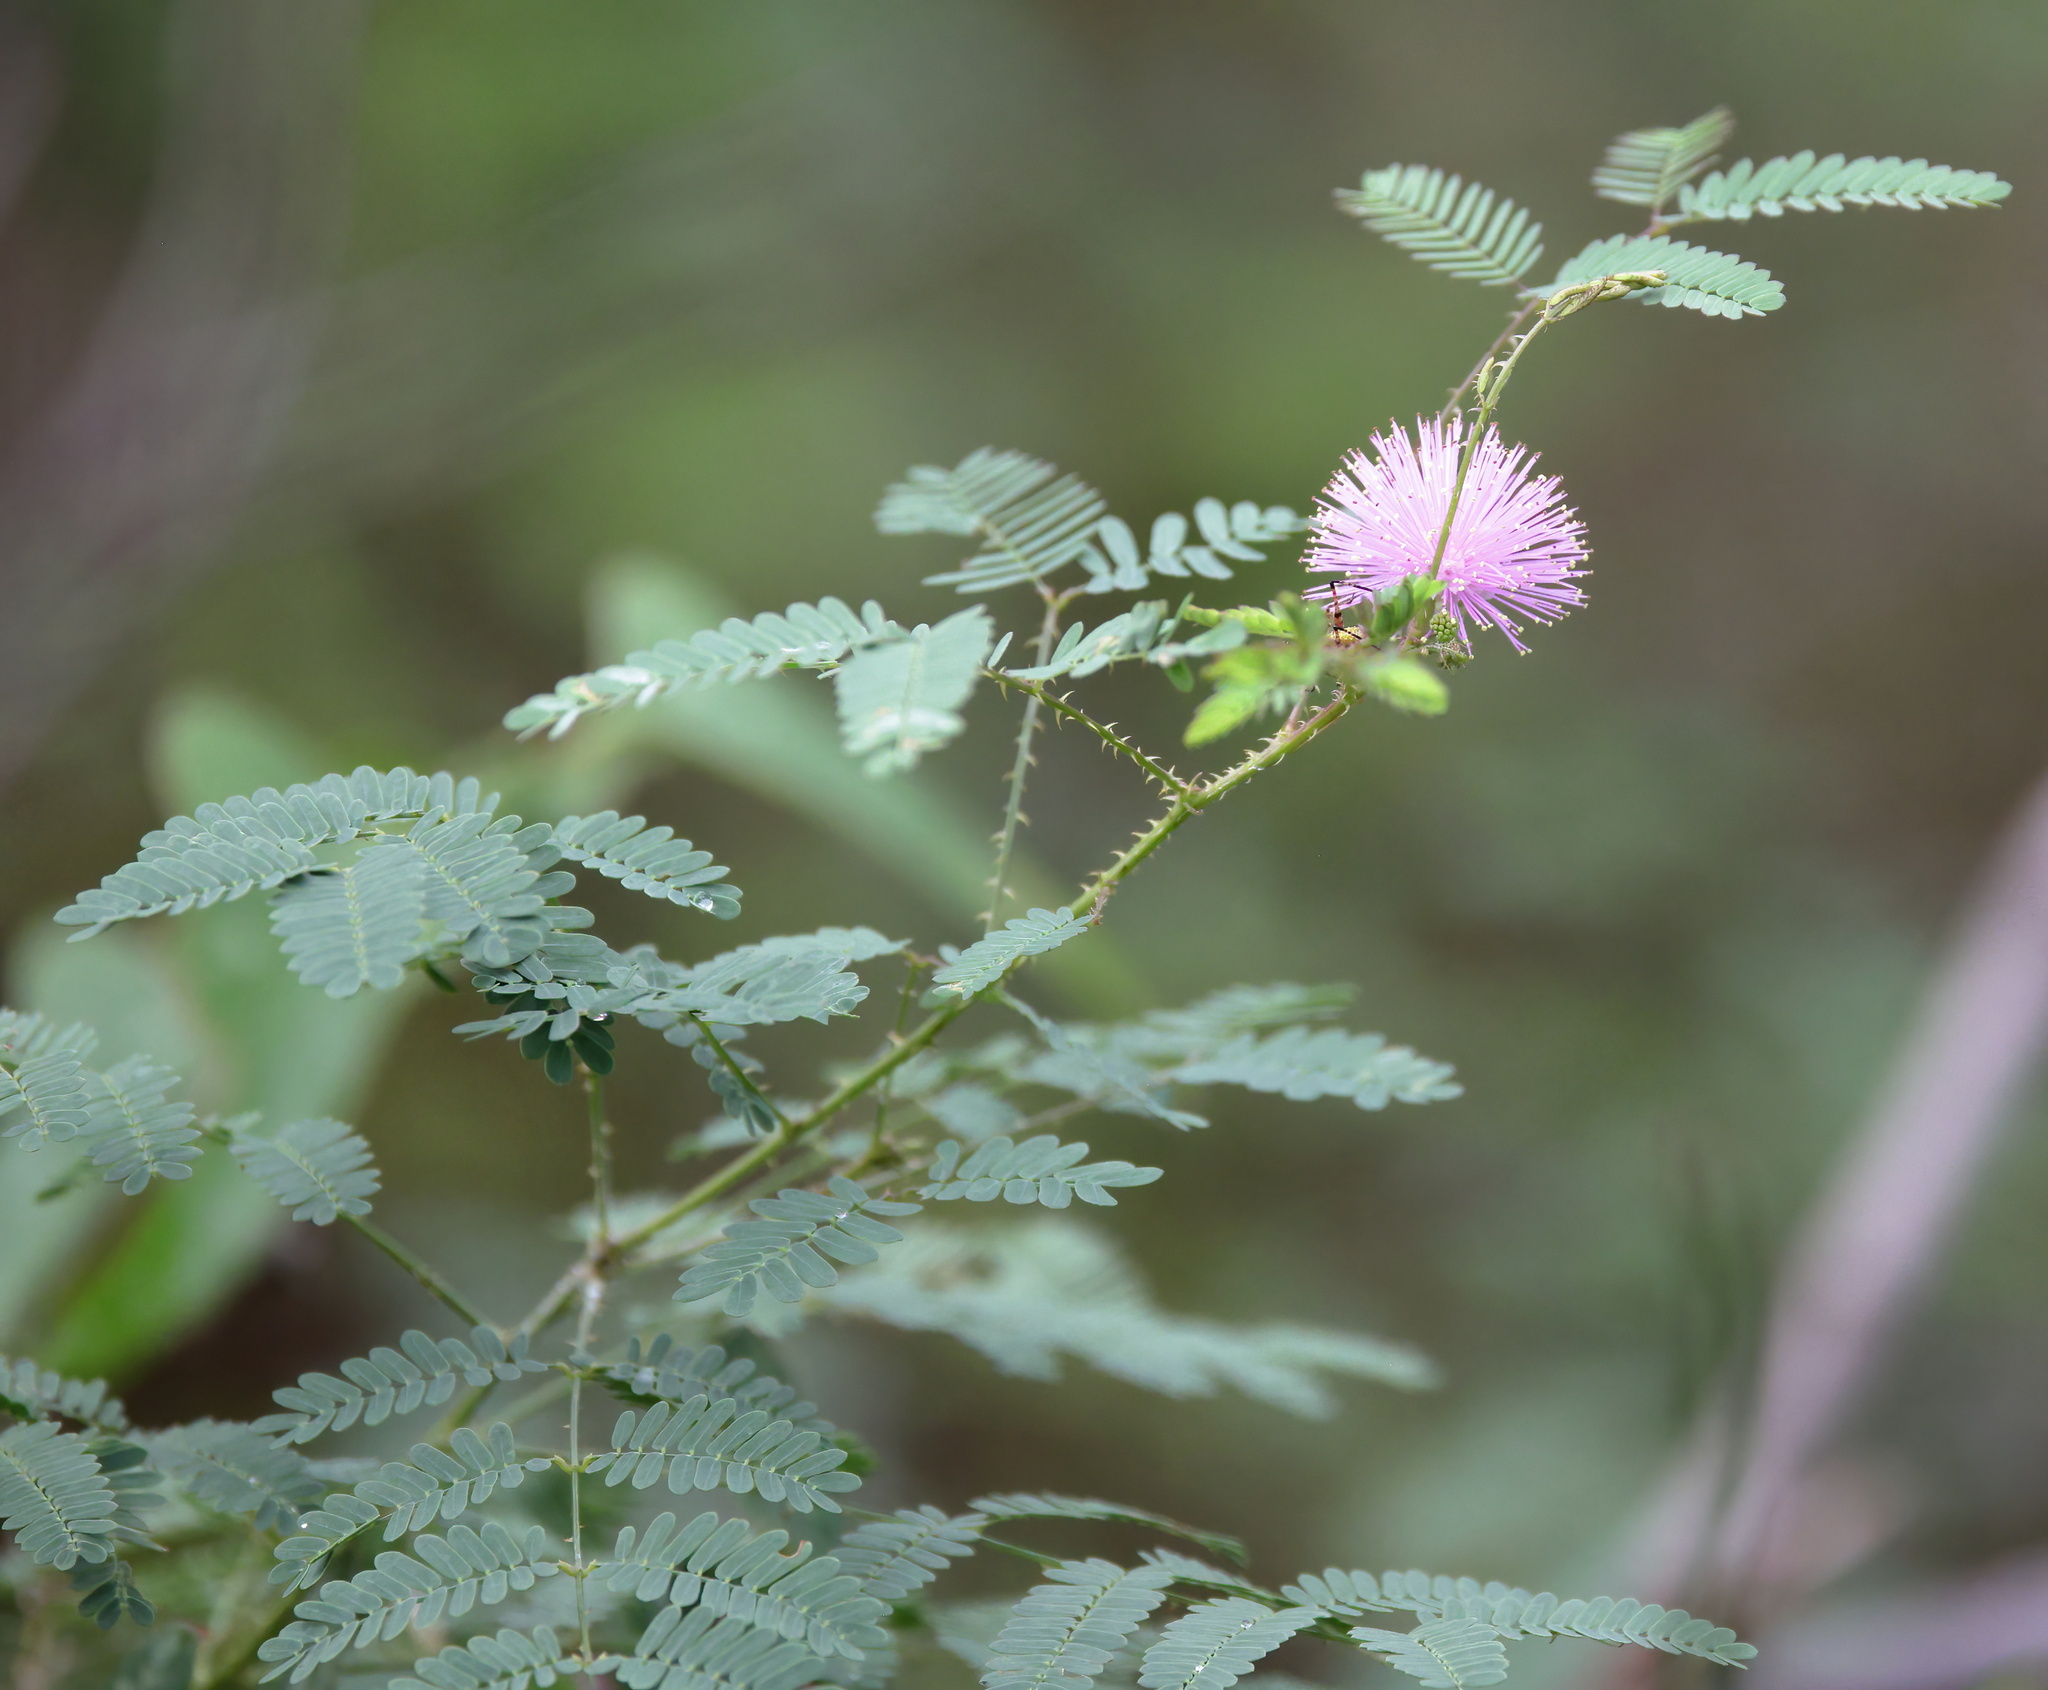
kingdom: Plantae
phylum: Tracheophyta
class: Magnoliopsida
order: Fabales
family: Fabaceae
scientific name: Fabaceae
